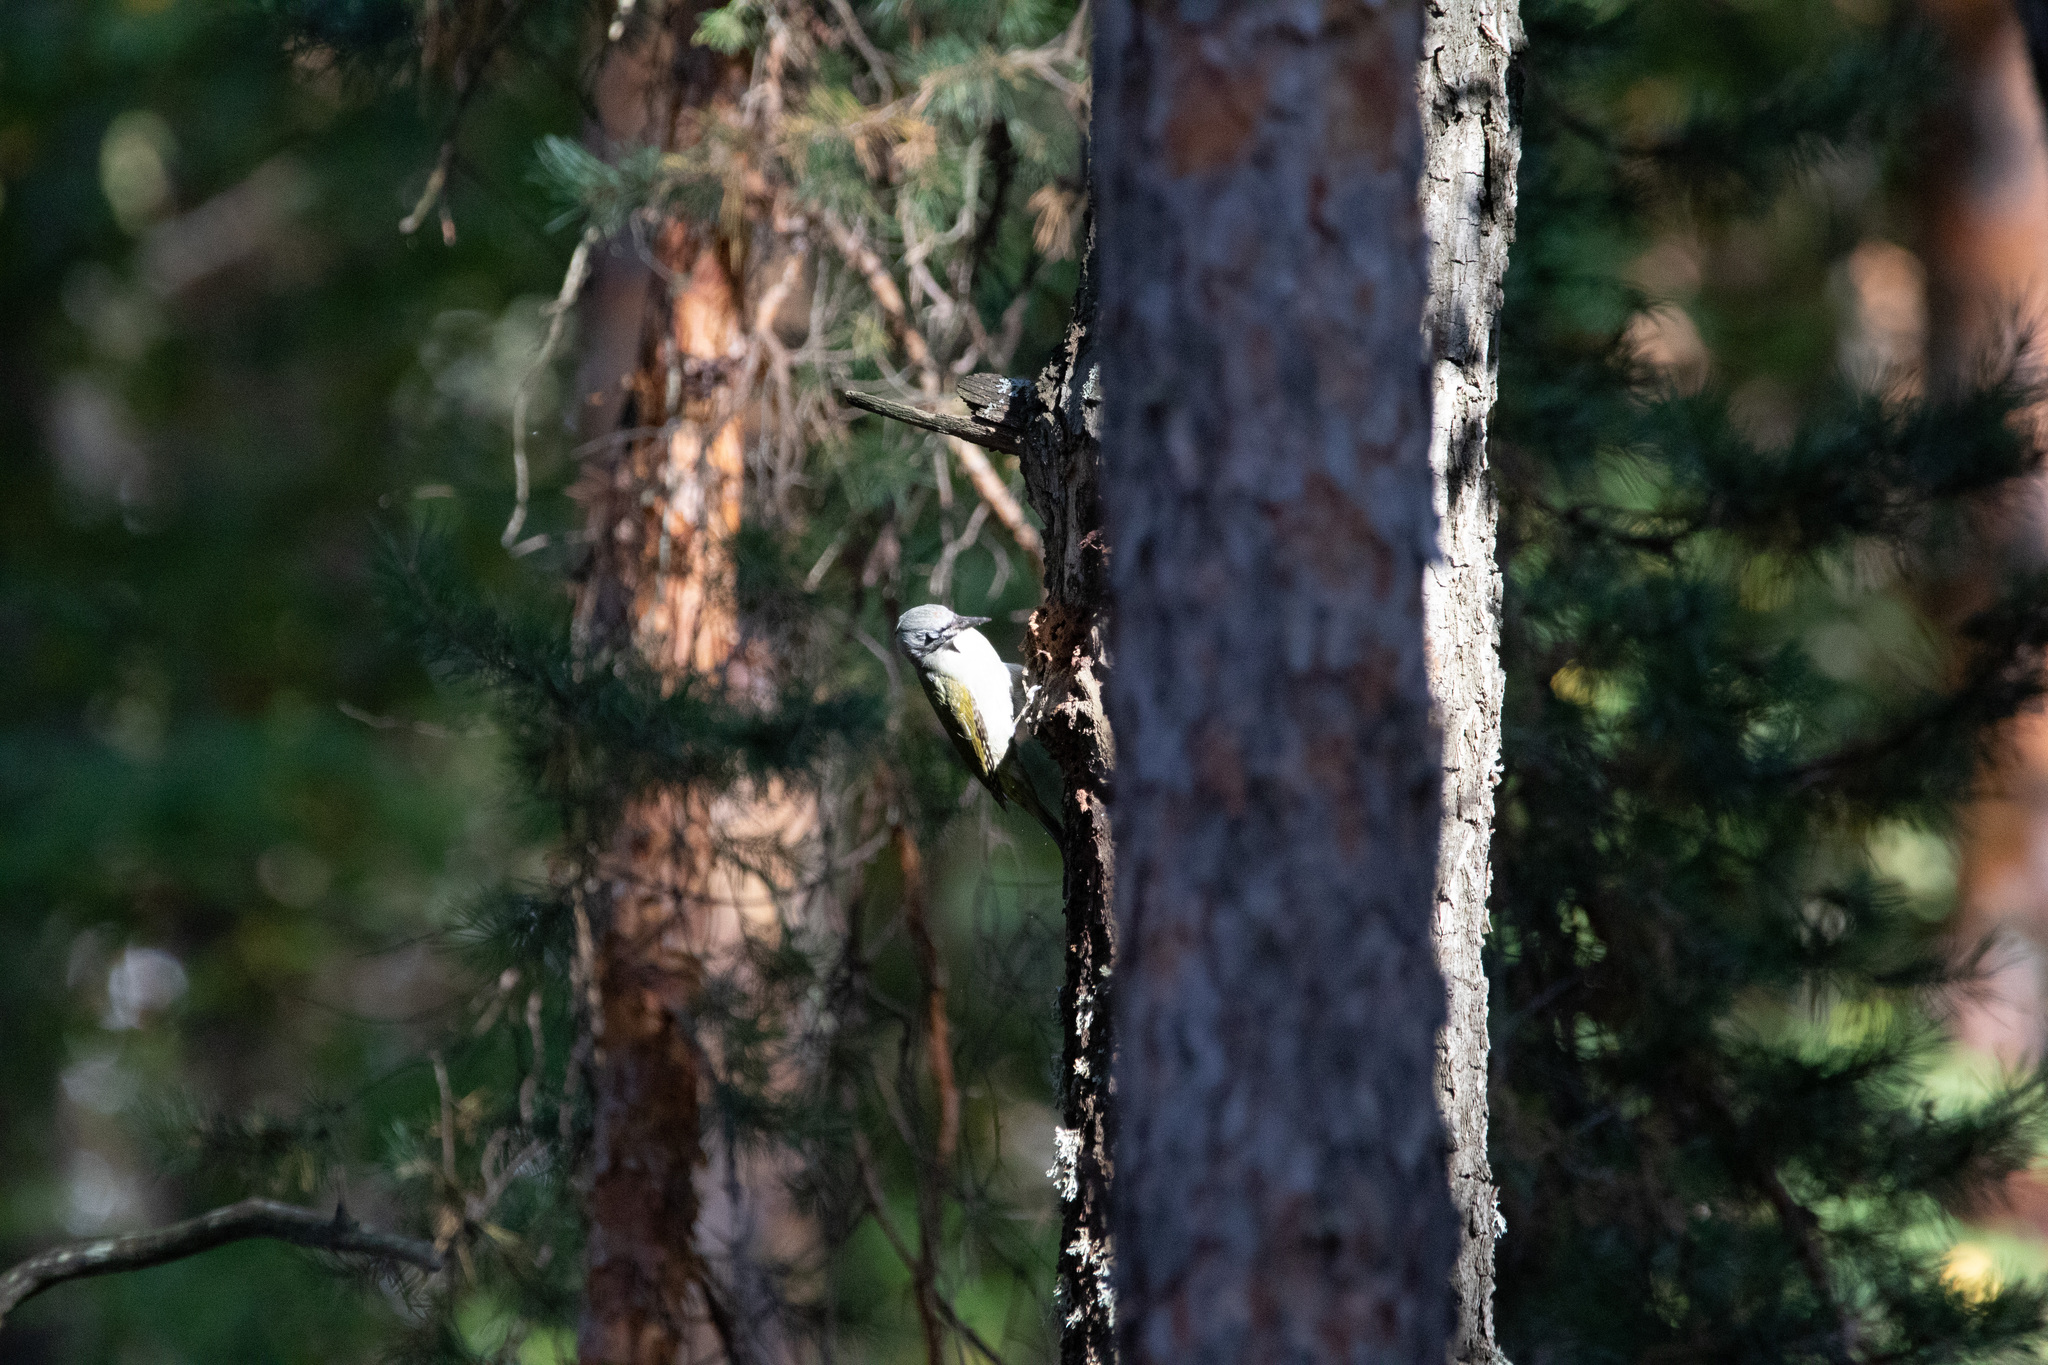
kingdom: Animalia
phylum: Chordata
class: Aves
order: Piciformes
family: Picidae
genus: Picus
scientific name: Picus canus
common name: Grey-headed woodpecker
